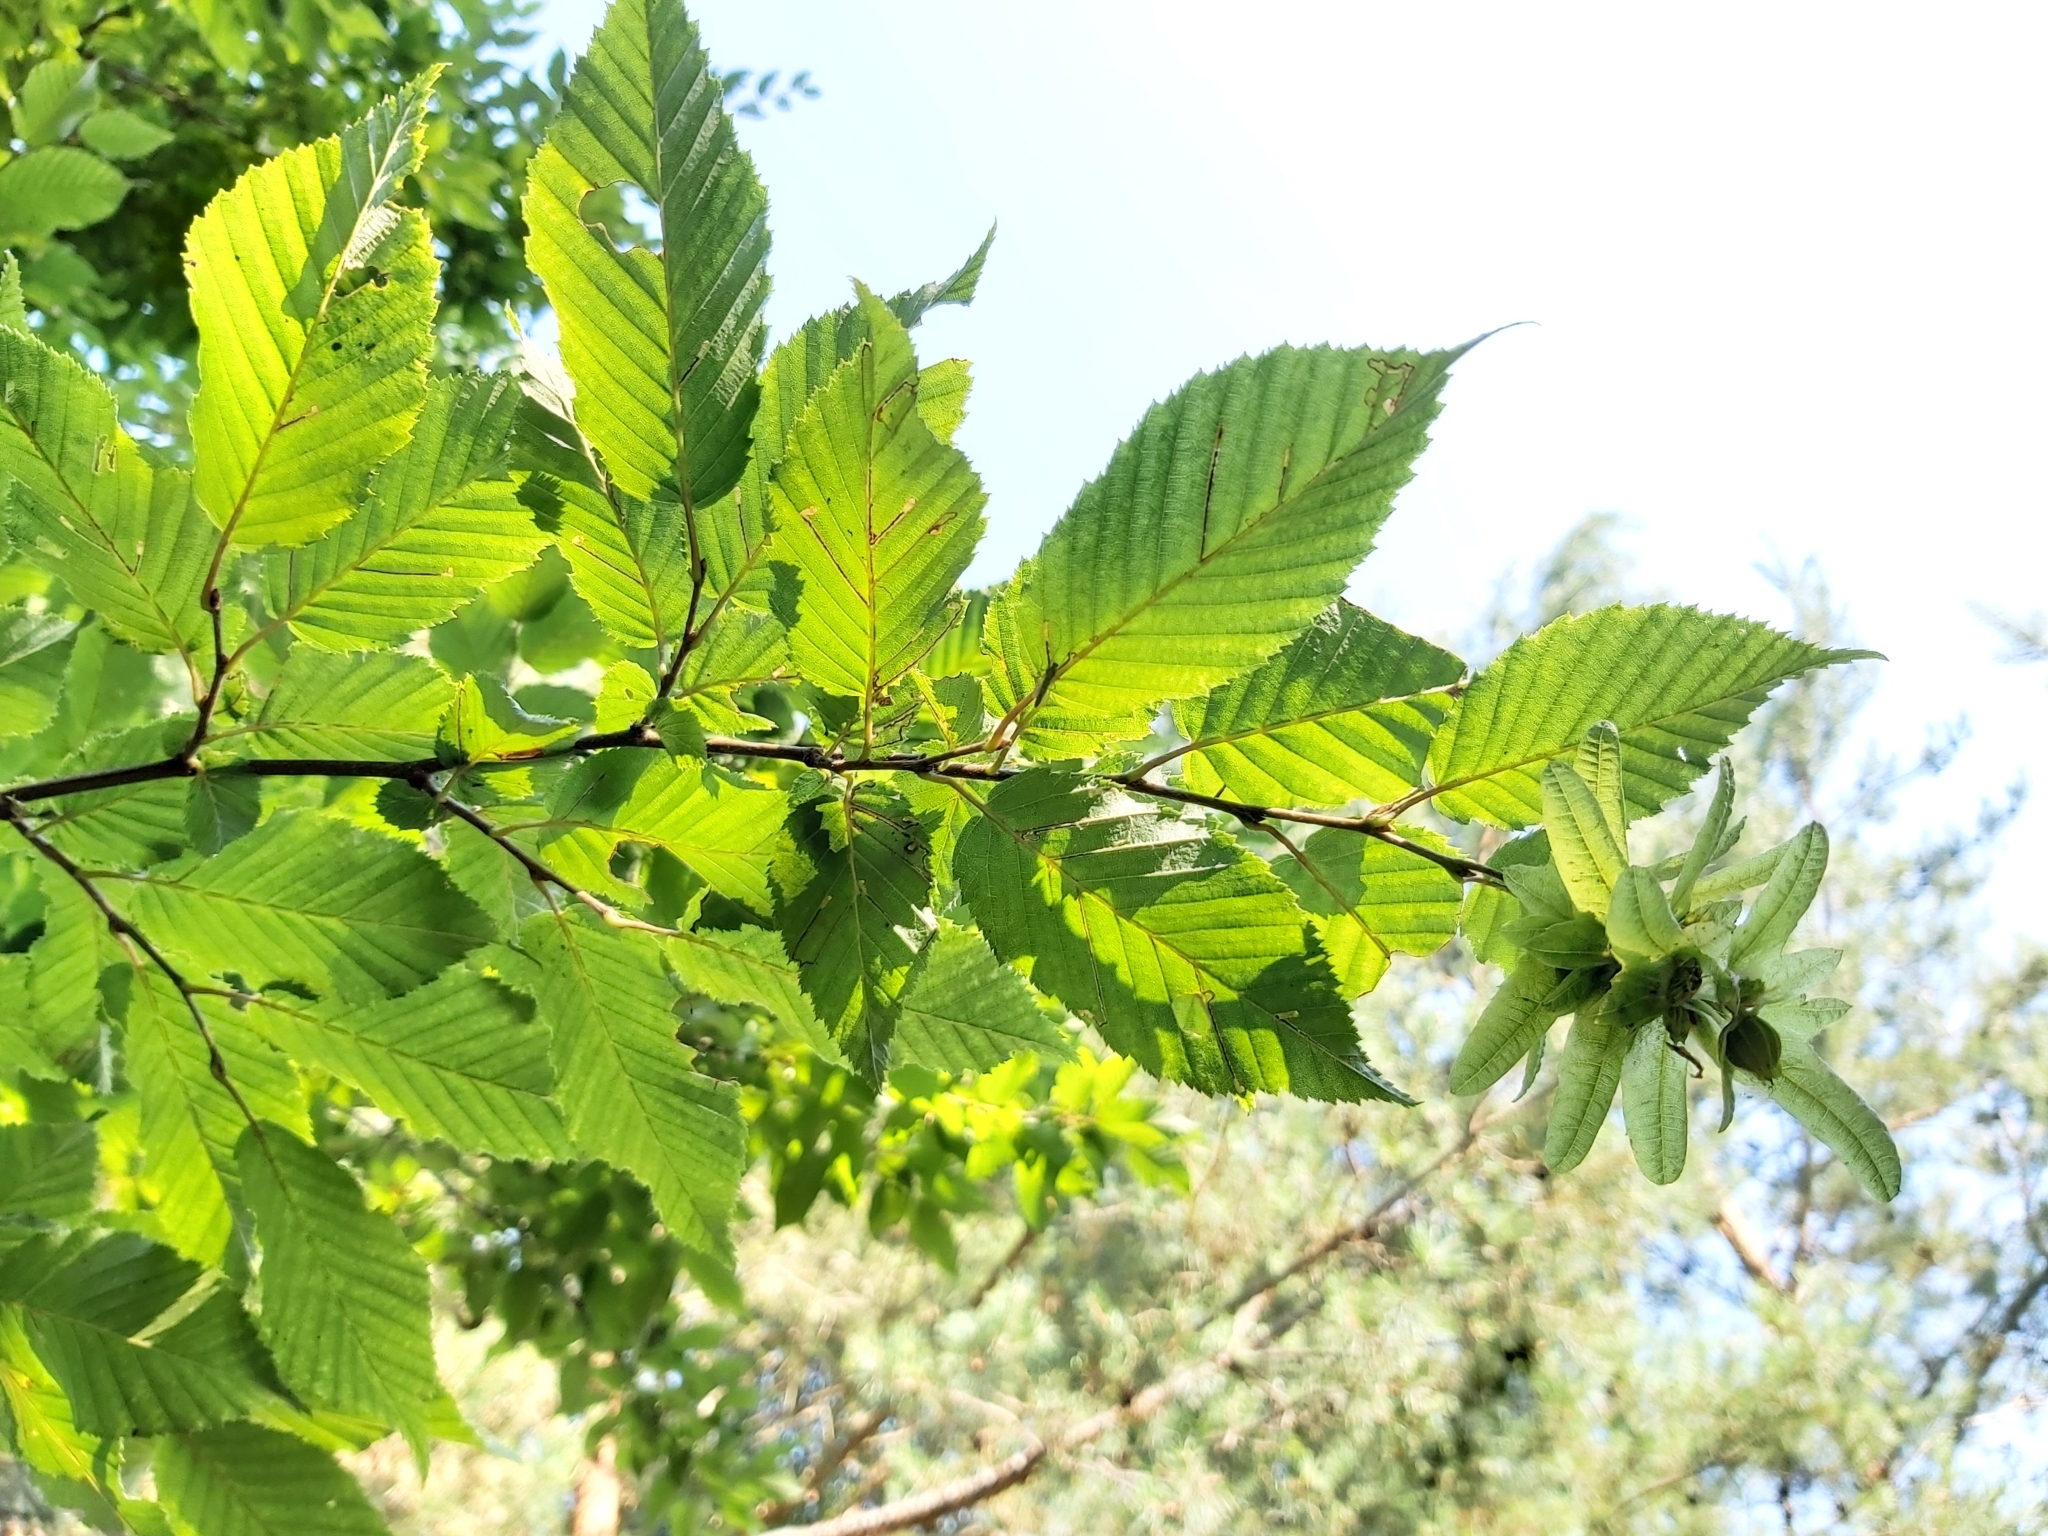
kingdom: Plantae
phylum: Tracheophyta
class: Magnoliopsida
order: Fagales
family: Betulaceae
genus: Carpinus
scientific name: Carpinus betulus
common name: Hornbeam
